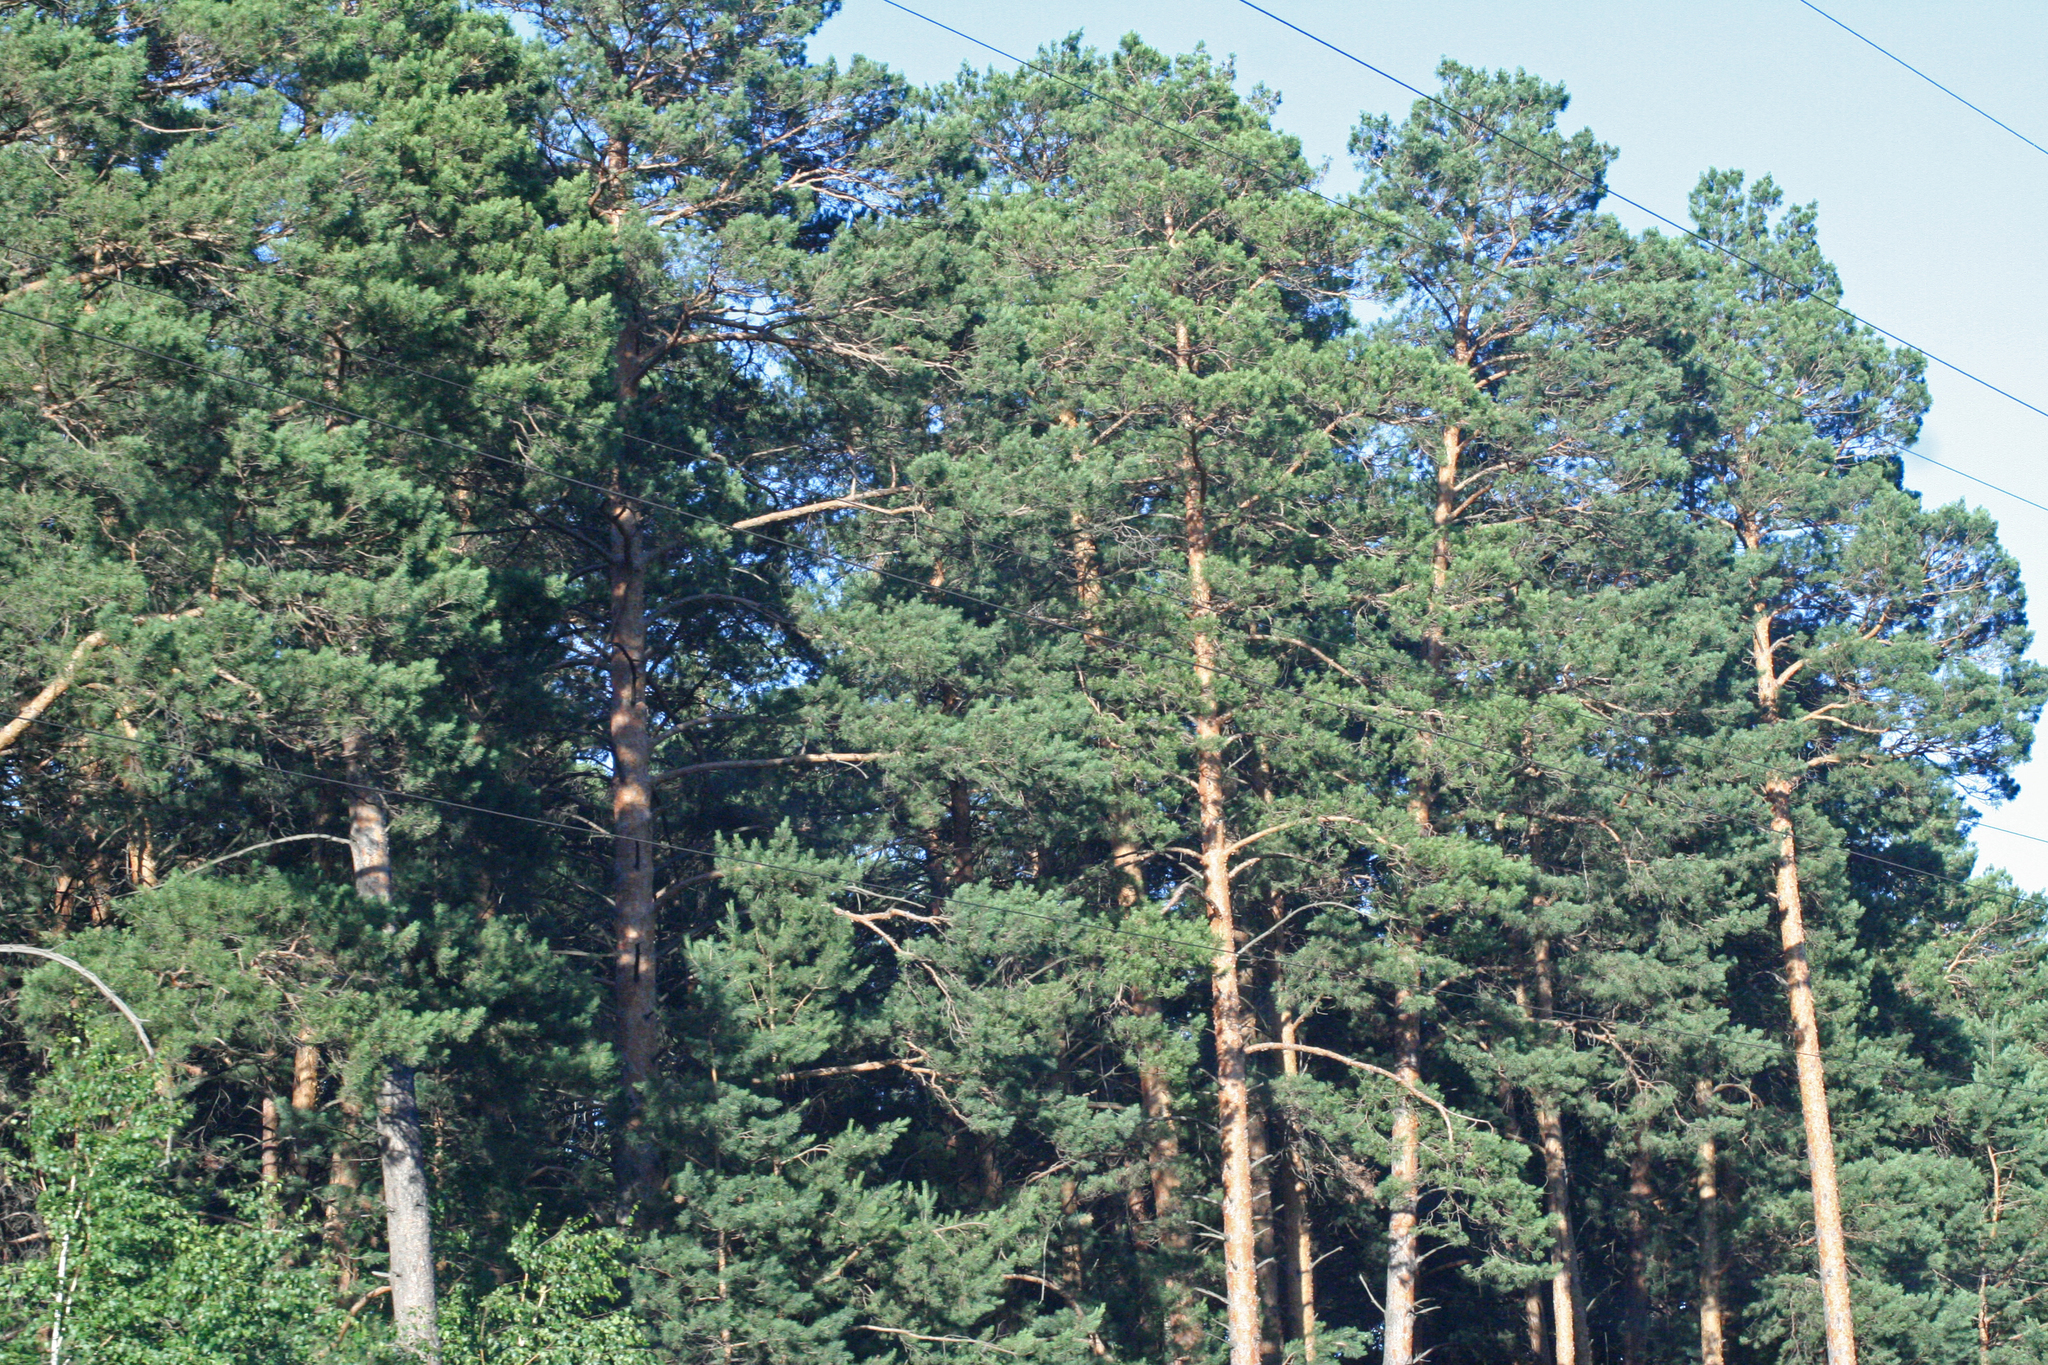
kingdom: Plantae
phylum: Tracheophyta
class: Pinopsida
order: Pinales
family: Pinaceae
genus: Pinus
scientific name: Pinus sylvestris
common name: Scots pine
